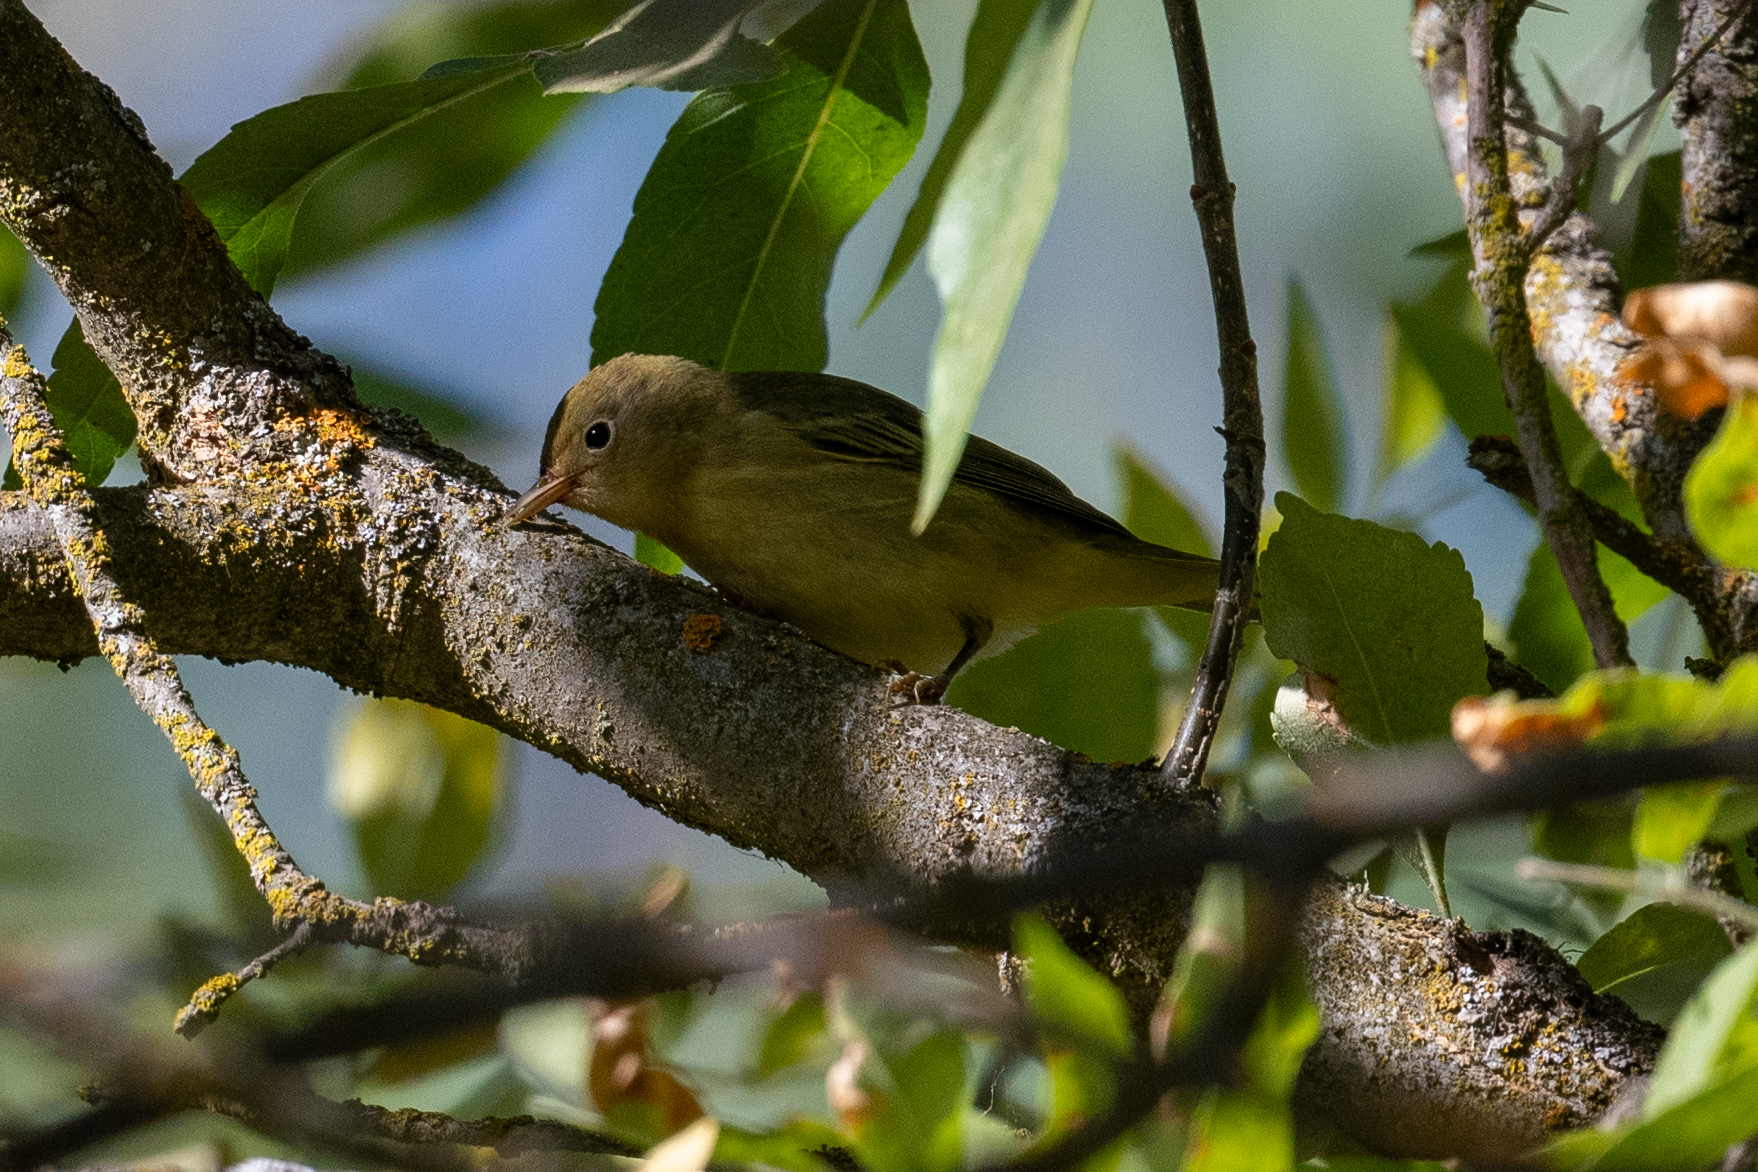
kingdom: Animalia
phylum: Chordata
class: Aves
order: Passeriformes
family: Parulidae
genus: Setophaga
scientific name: Setophaga petechia
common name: Yellow warbler
